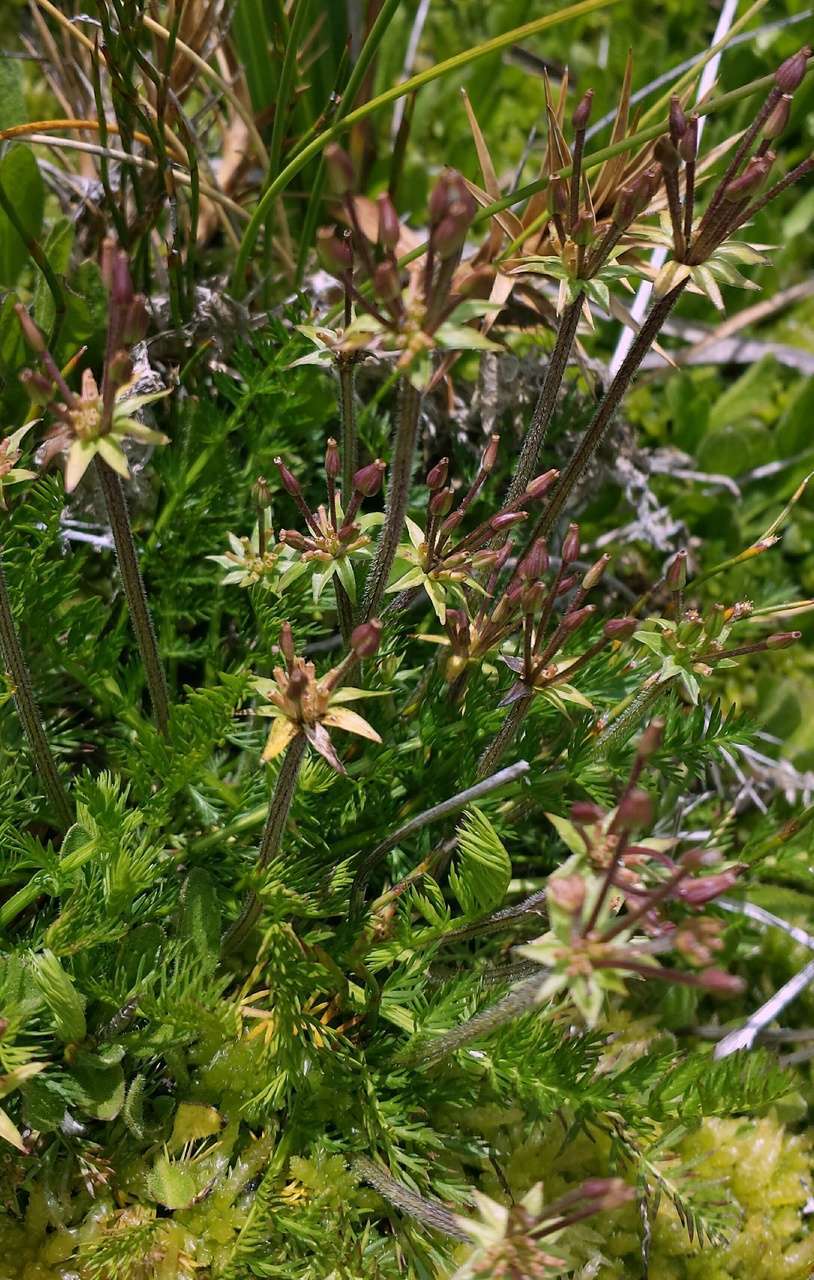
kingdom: Plantae
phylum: Tracheophyta
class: Magnoliopsida
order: Apiales
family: Apiaceae
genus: Chaerophyllum
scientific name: Chaerophyllum australianum
